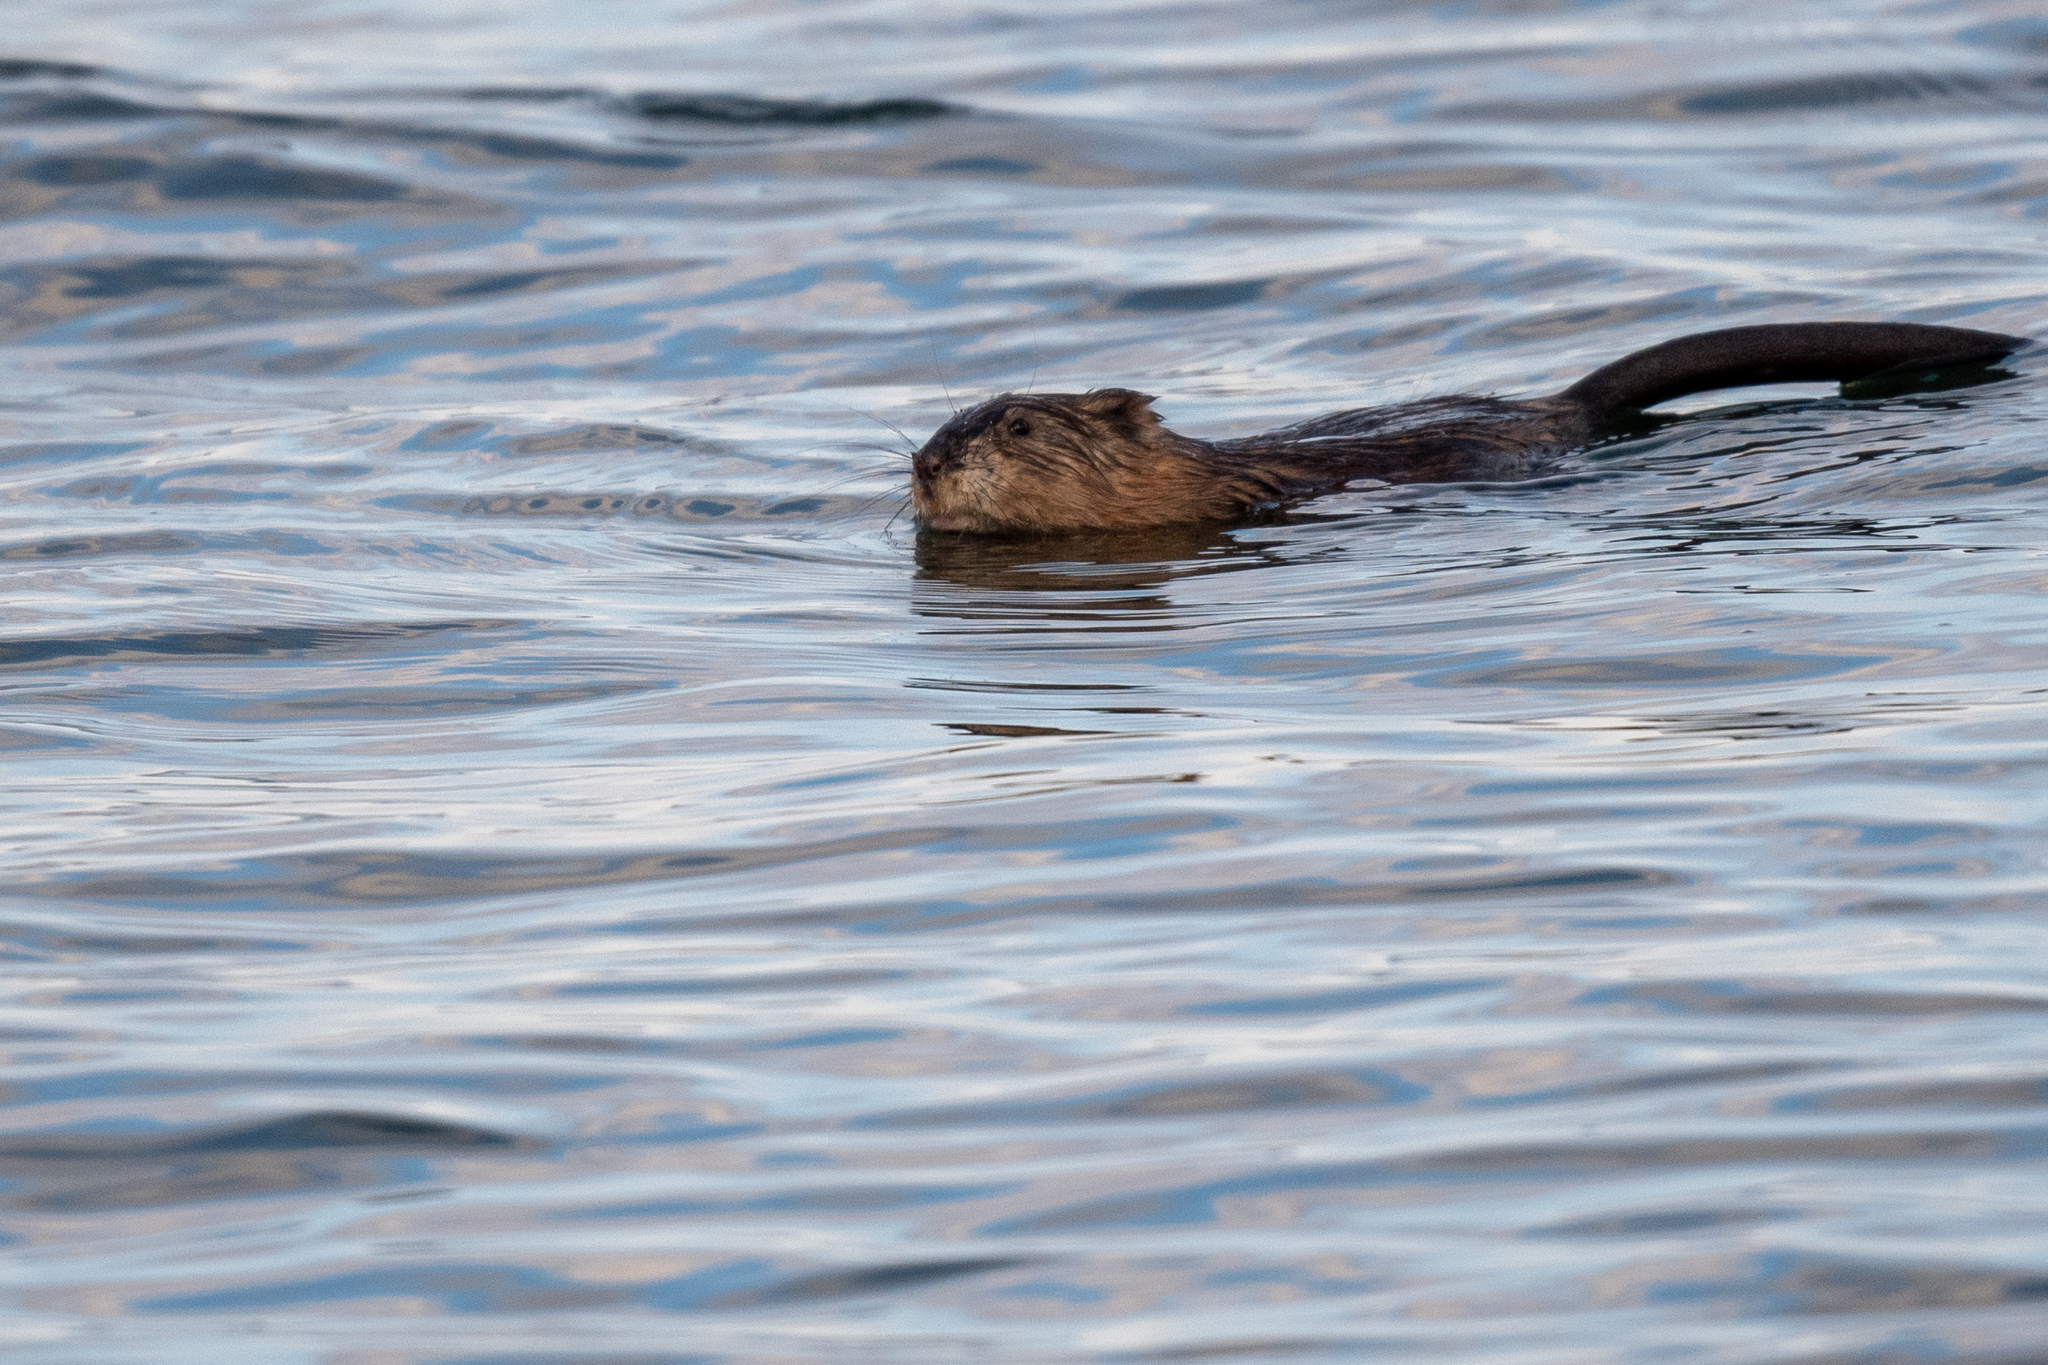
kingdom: Animalia
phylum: Chordata
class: Mammalia
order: Rodentia
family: Cricetidae
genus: Ondatra
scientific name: Ondatra zibethicus
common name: Muskrat
